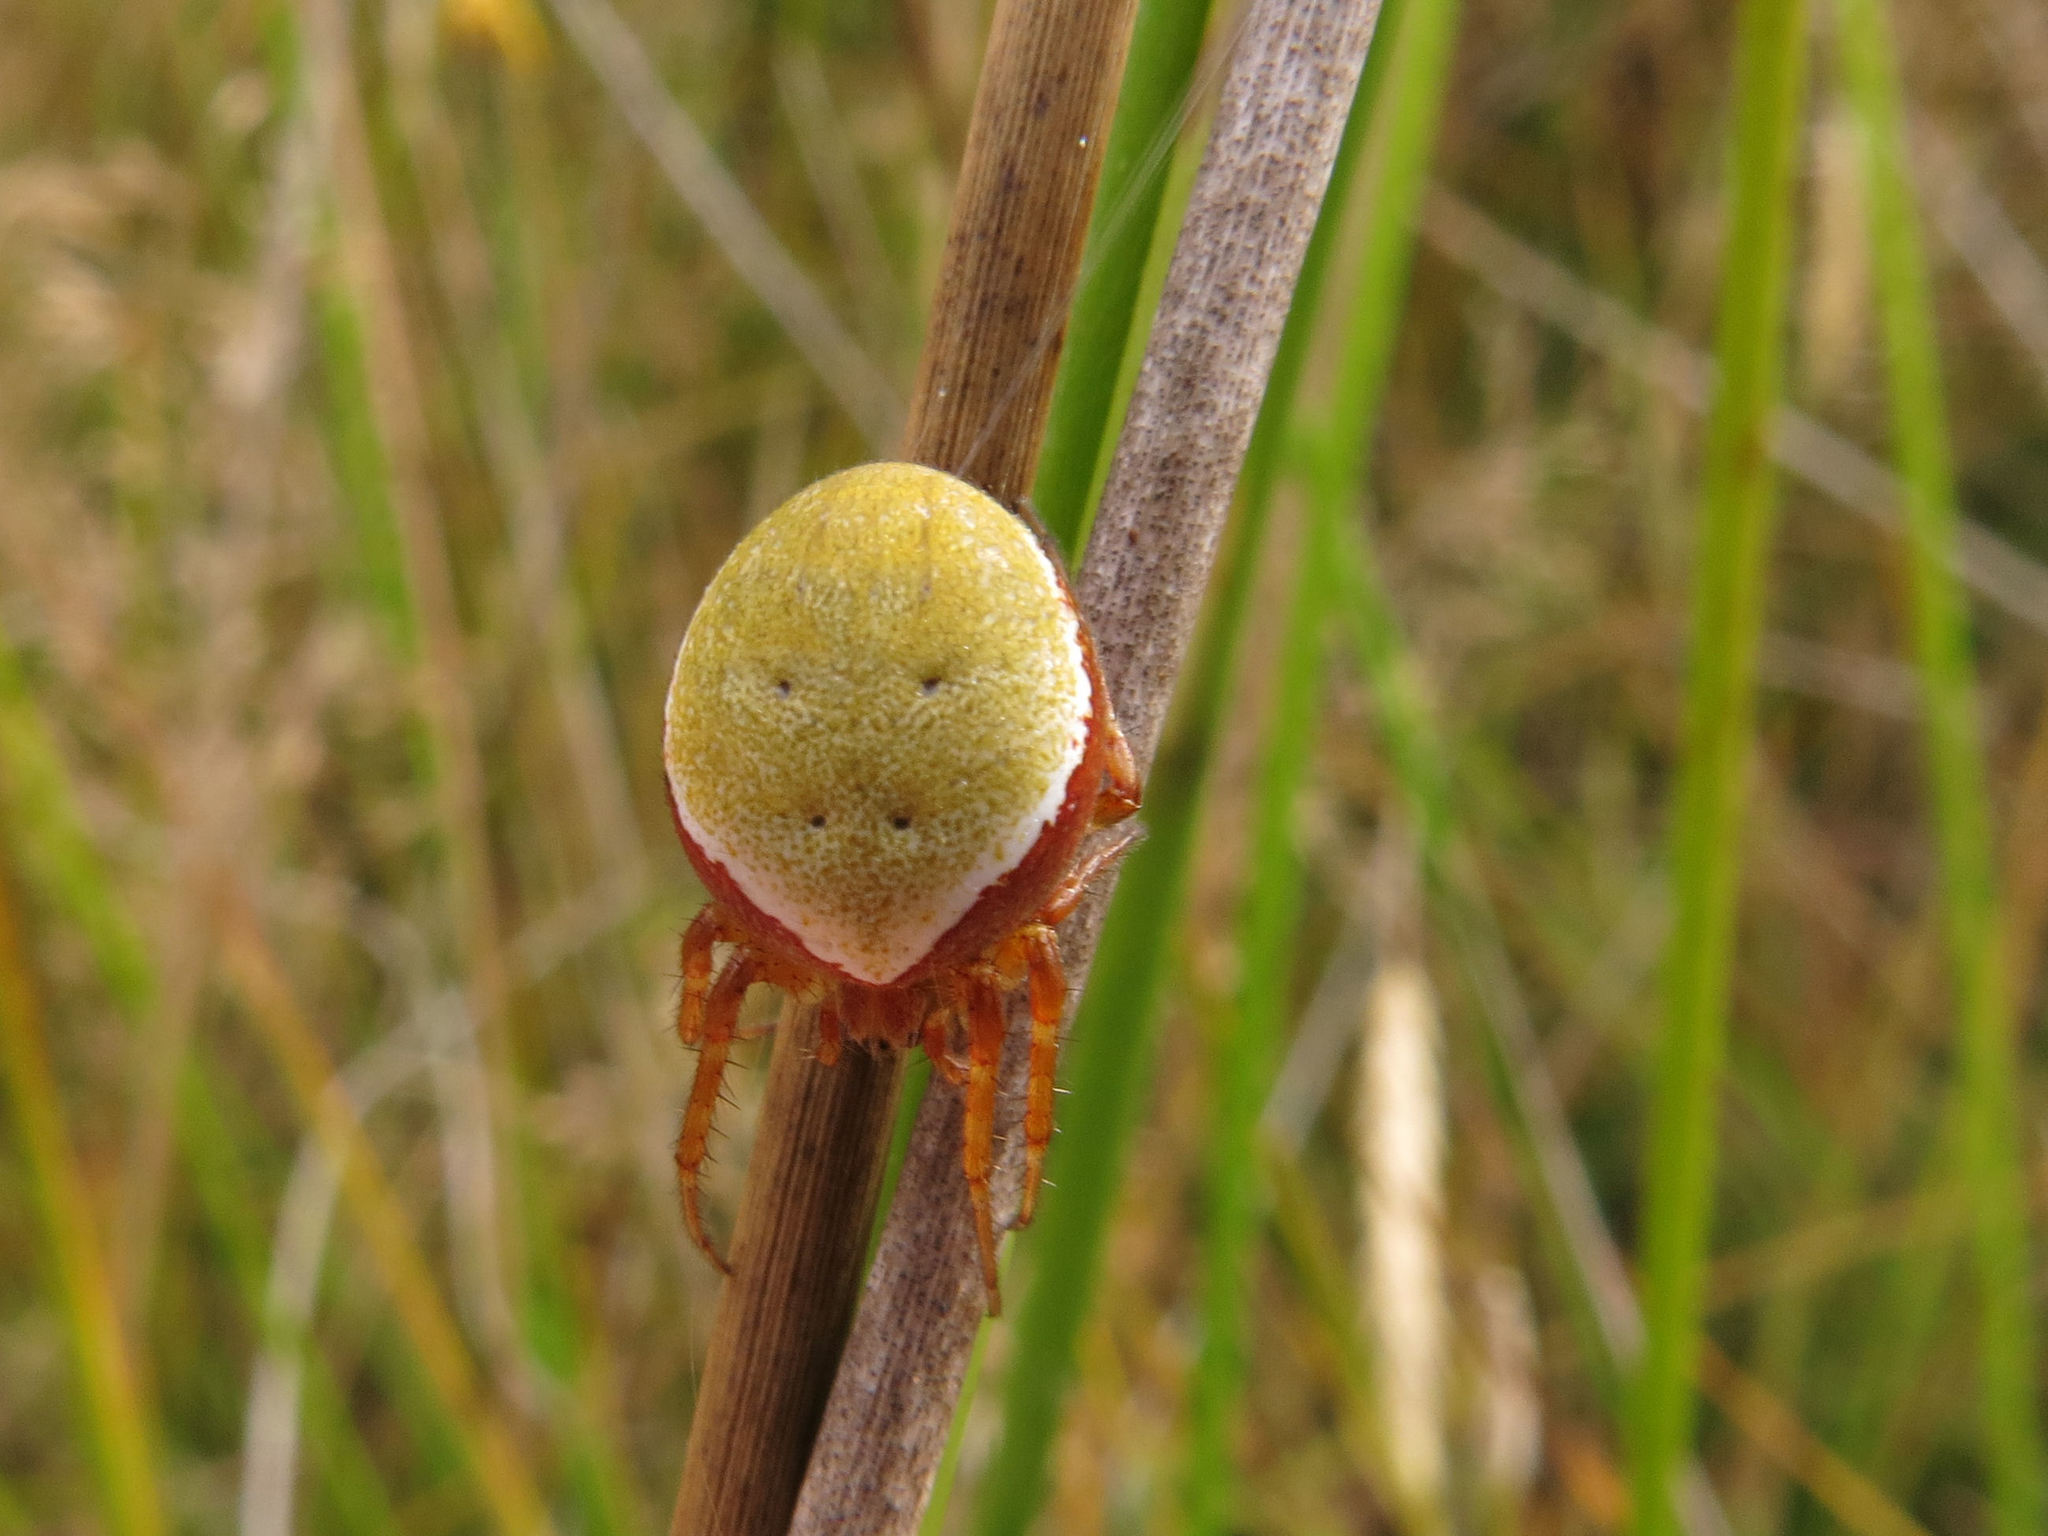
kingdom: Animalia
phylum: Arthropoda
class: Arachnida
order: Araneae
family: Araneidae
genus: Colaranea
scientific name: Colaranea viriditas
